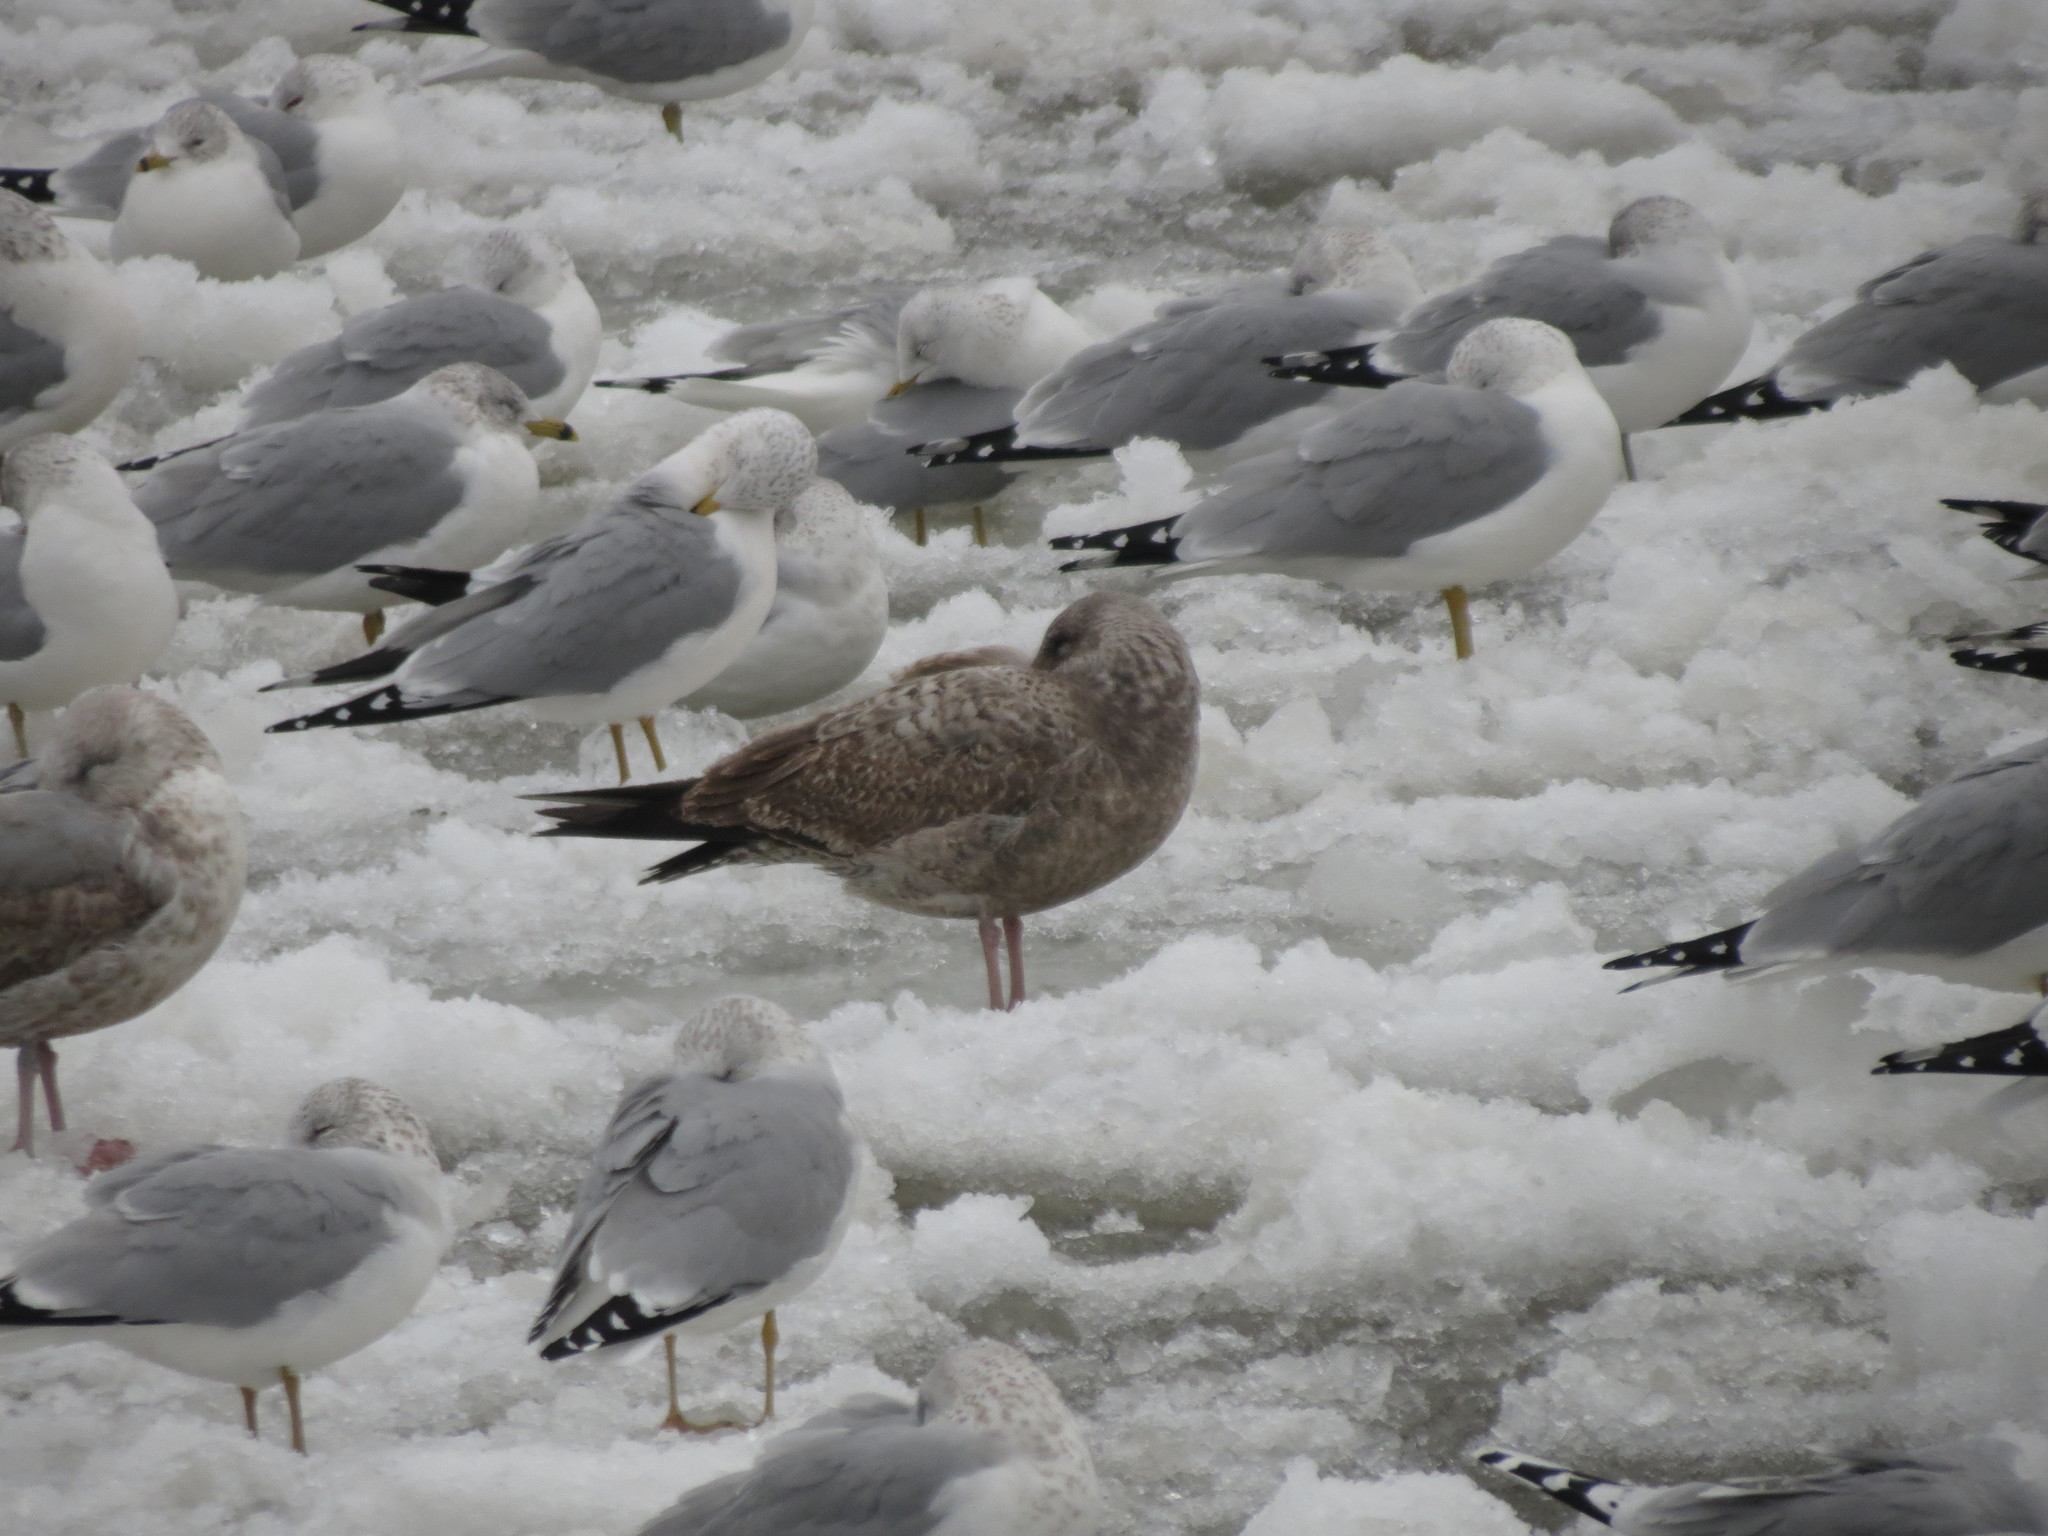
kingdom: Animalia
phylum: Chordata
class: Aves
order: Charadriiformes
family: Laridae
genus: Larus
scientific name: Larus argentatus
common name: Herring gull
